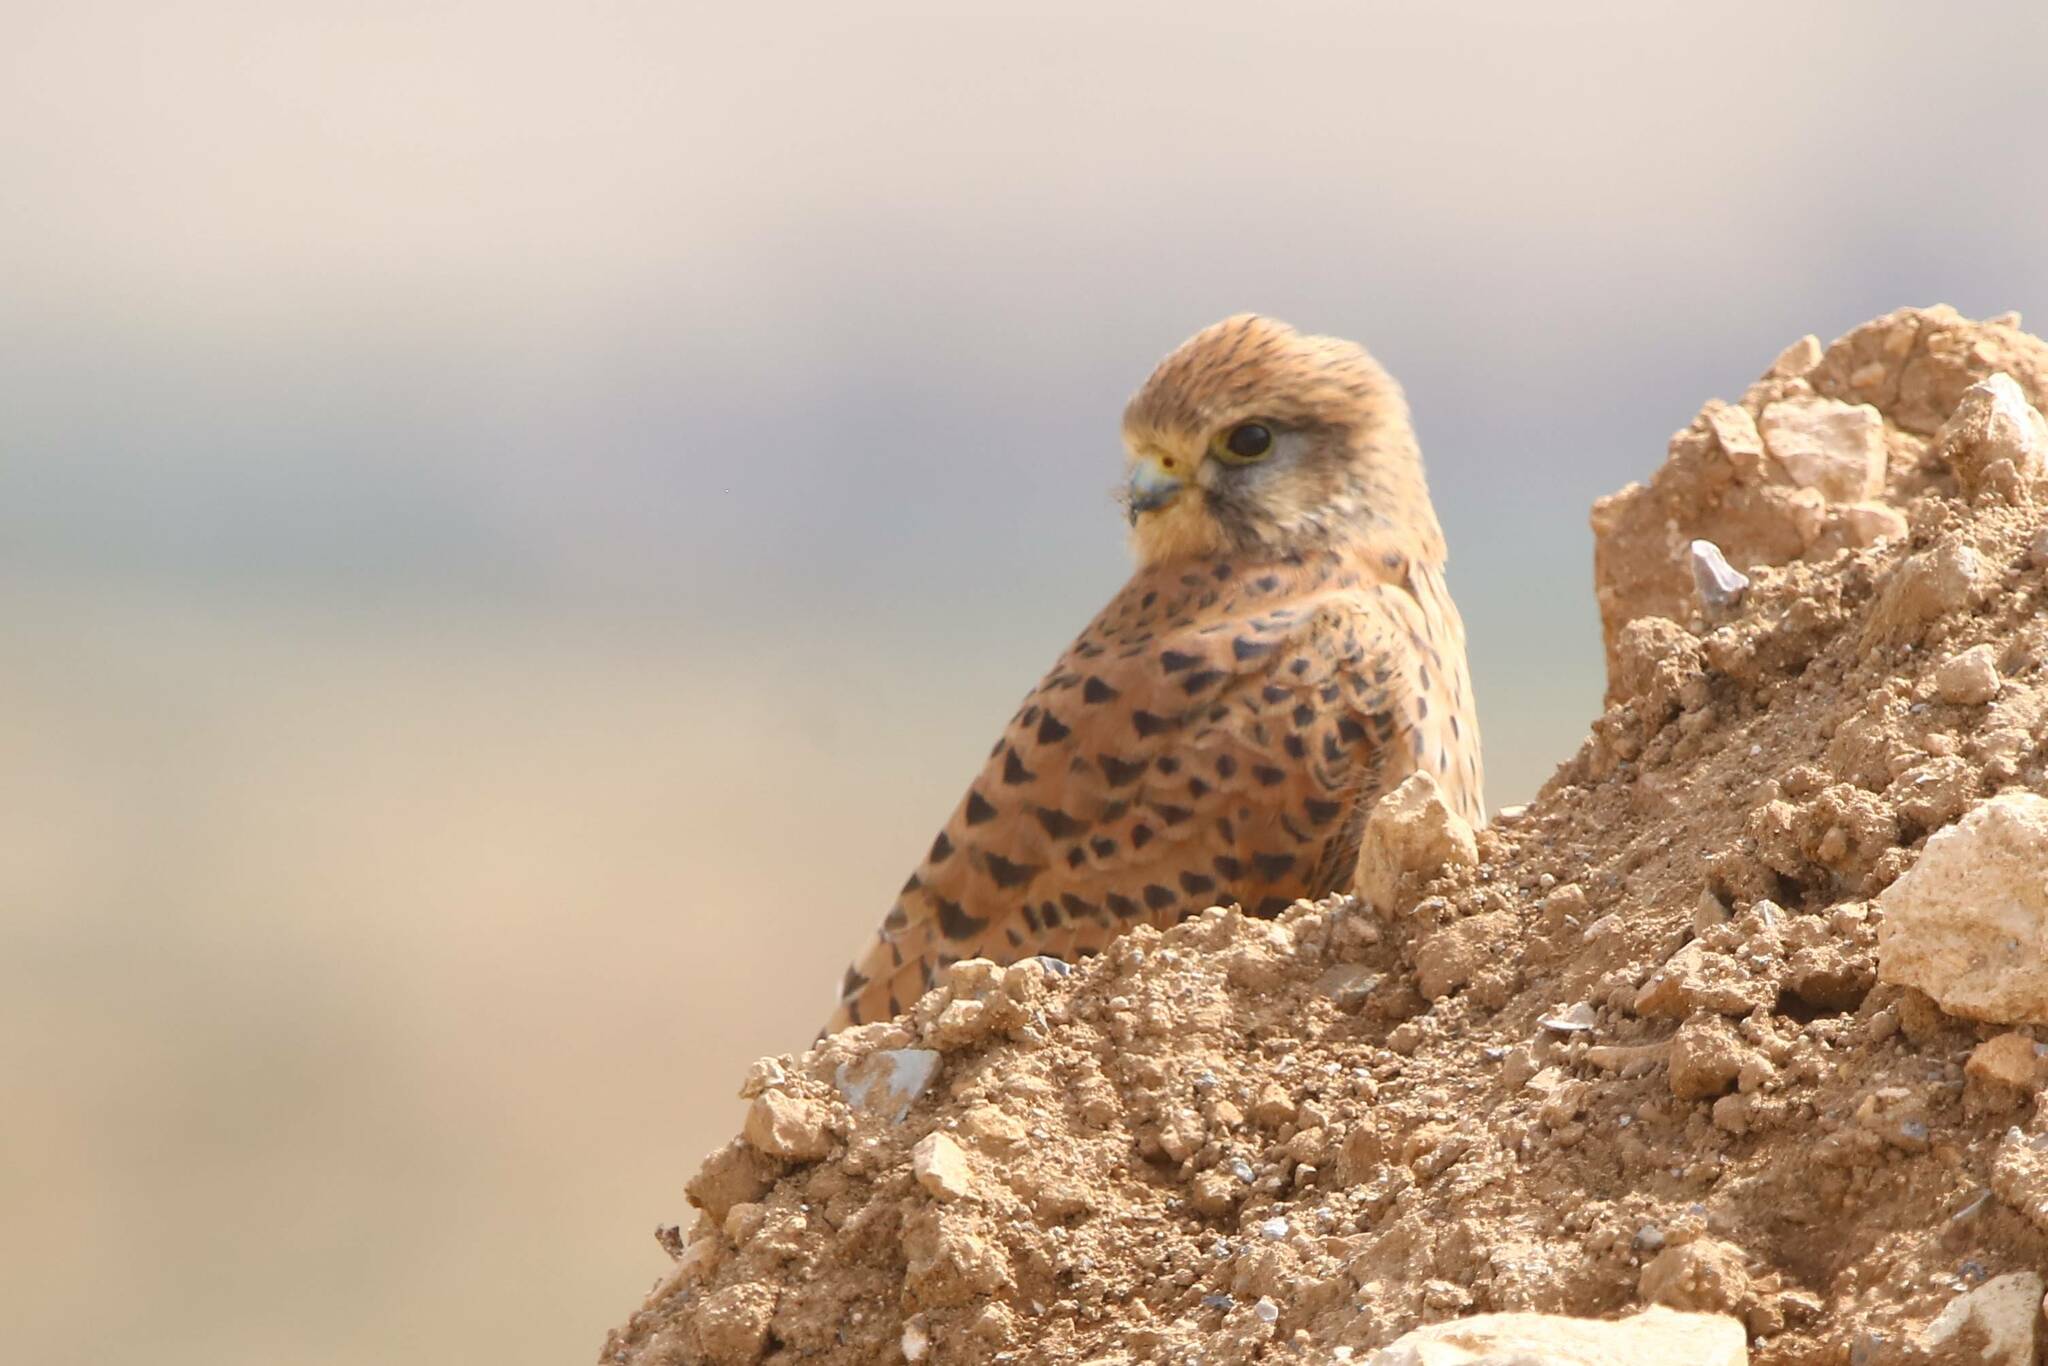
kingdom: Animalia
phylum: Chordata
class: Aves
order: Falconiformes
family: Falconidae
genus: Falco
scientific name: Falco tinnunculus
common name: Common kestrel
